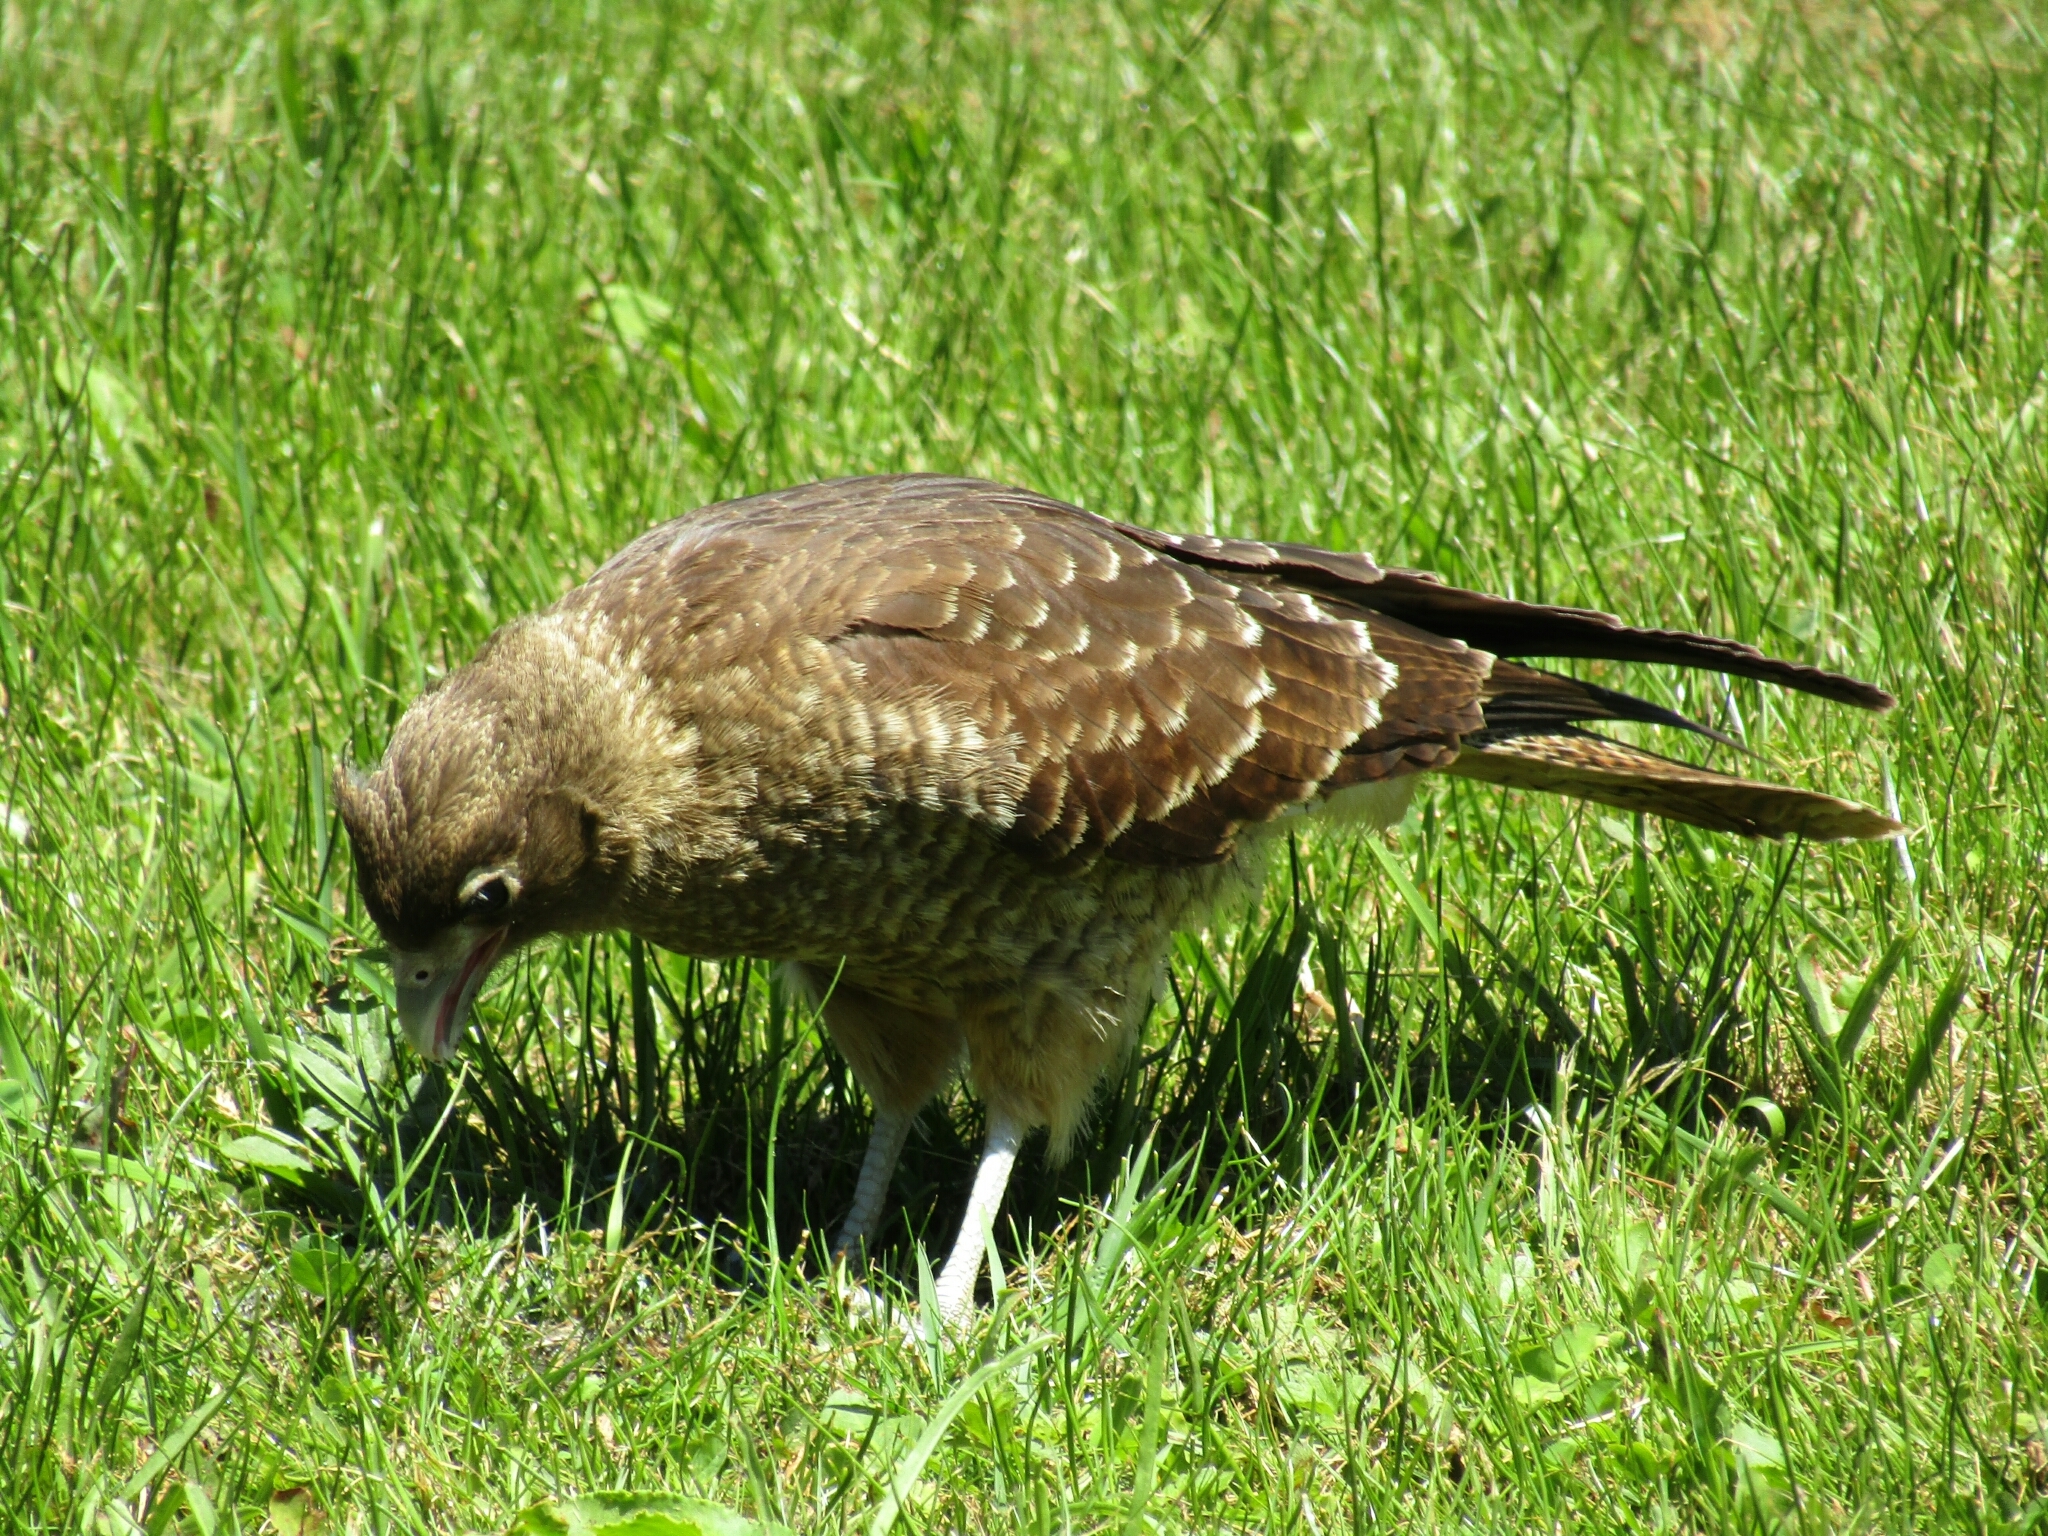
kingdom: Animalia
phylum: Chordata
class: Aves
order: Falconiformes
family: Falconidae
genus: Daptrius
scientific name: Daptrius
